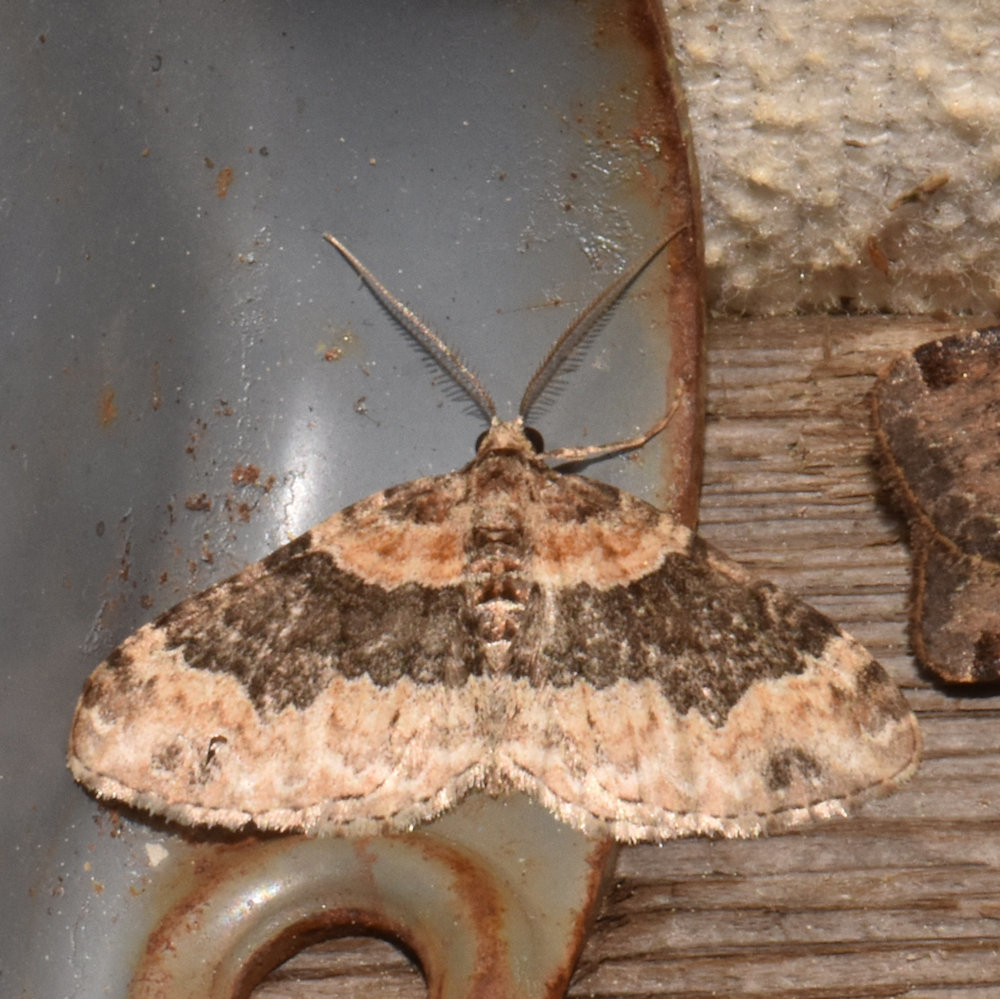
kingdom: Animalia
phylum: Arthropoda
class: Insecta
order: Lepidoptera
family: Geometridae
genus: Xanthorhoe
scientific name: Xanthorhoe ferrugata
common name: Dark-barred twin-spot carpet
